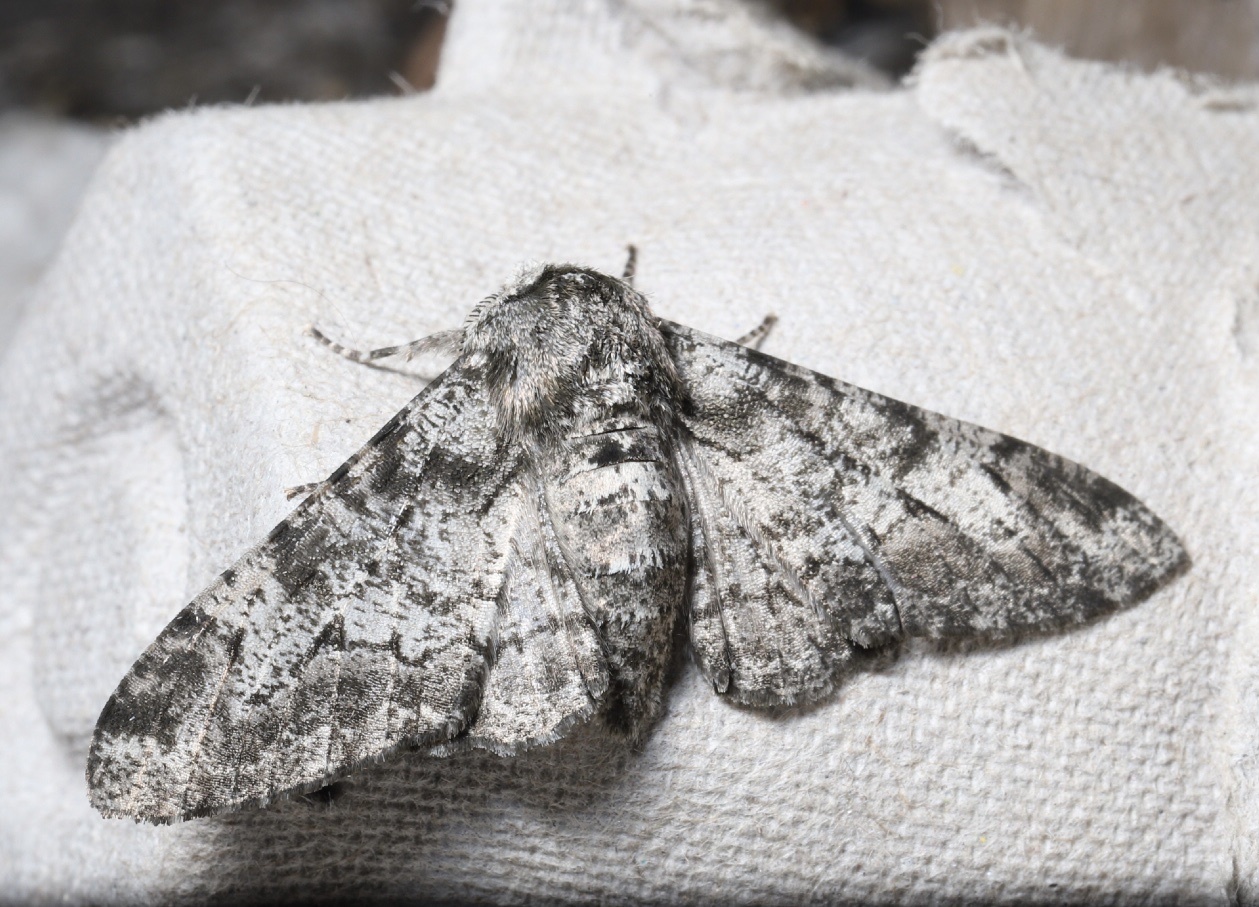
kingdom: Animalia
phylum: Arthropoda
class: Insecta
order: Lepidoptera
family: Geometridae
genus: Biston
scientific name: Biston betularia
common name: Peppered moth
